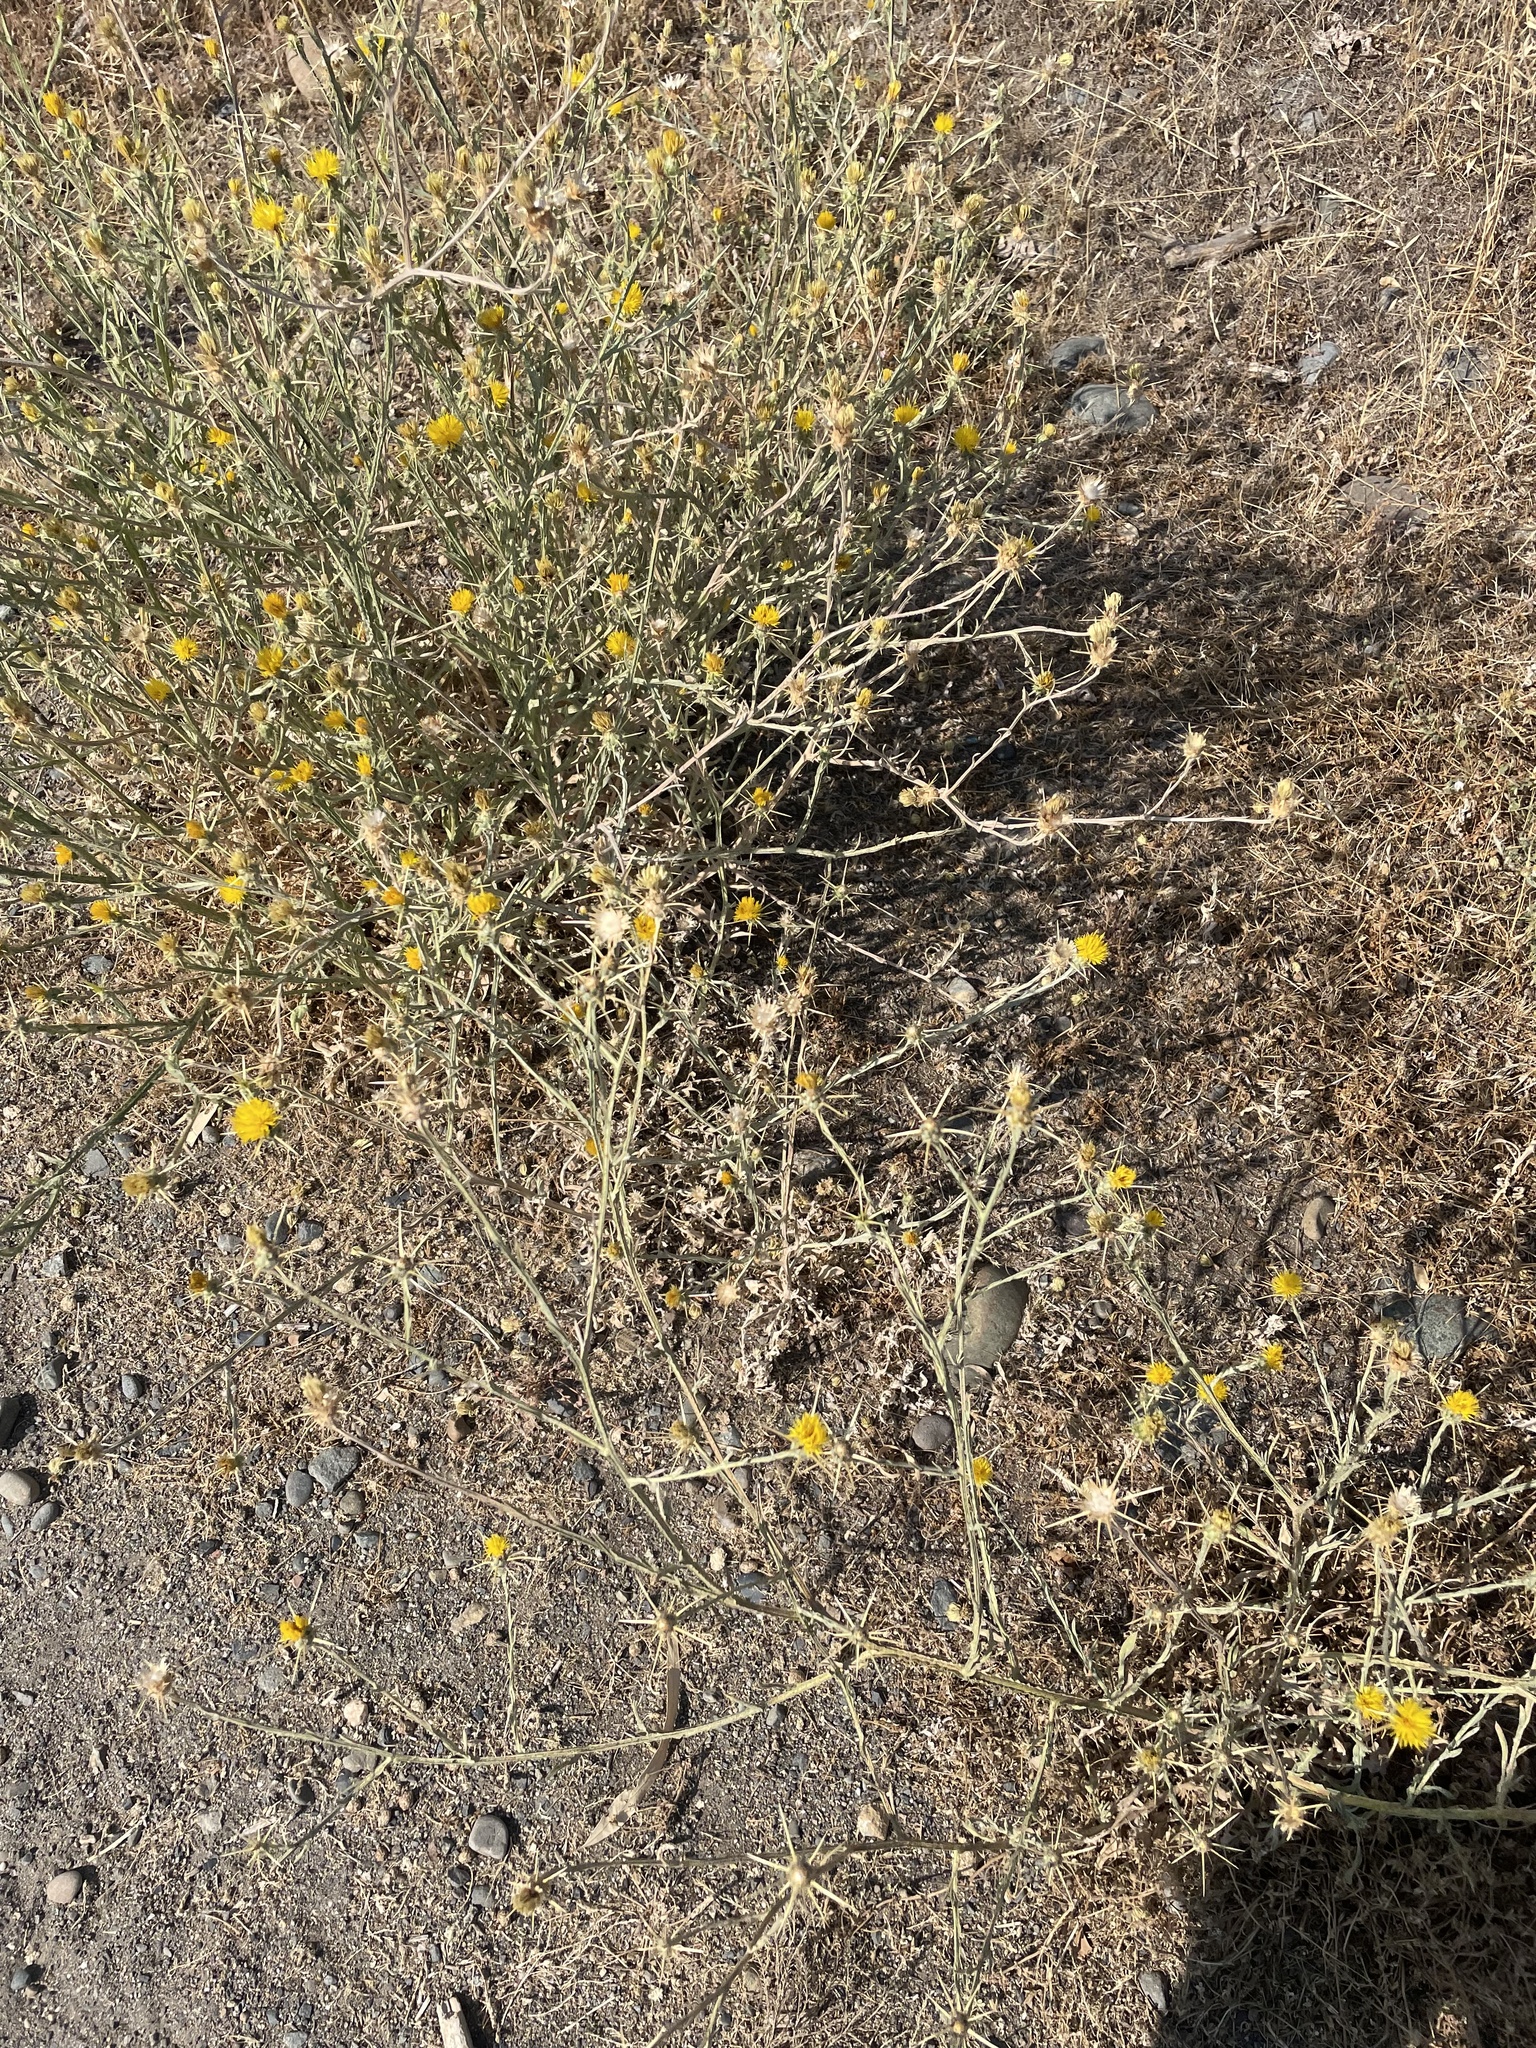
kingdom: Plantae
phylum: Tracheophyta
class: Magnoliopsida
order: Asterales
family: Asteraceae
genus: Centaurea
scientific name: Centaurea solstitialis
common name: Yellow star-thistle
